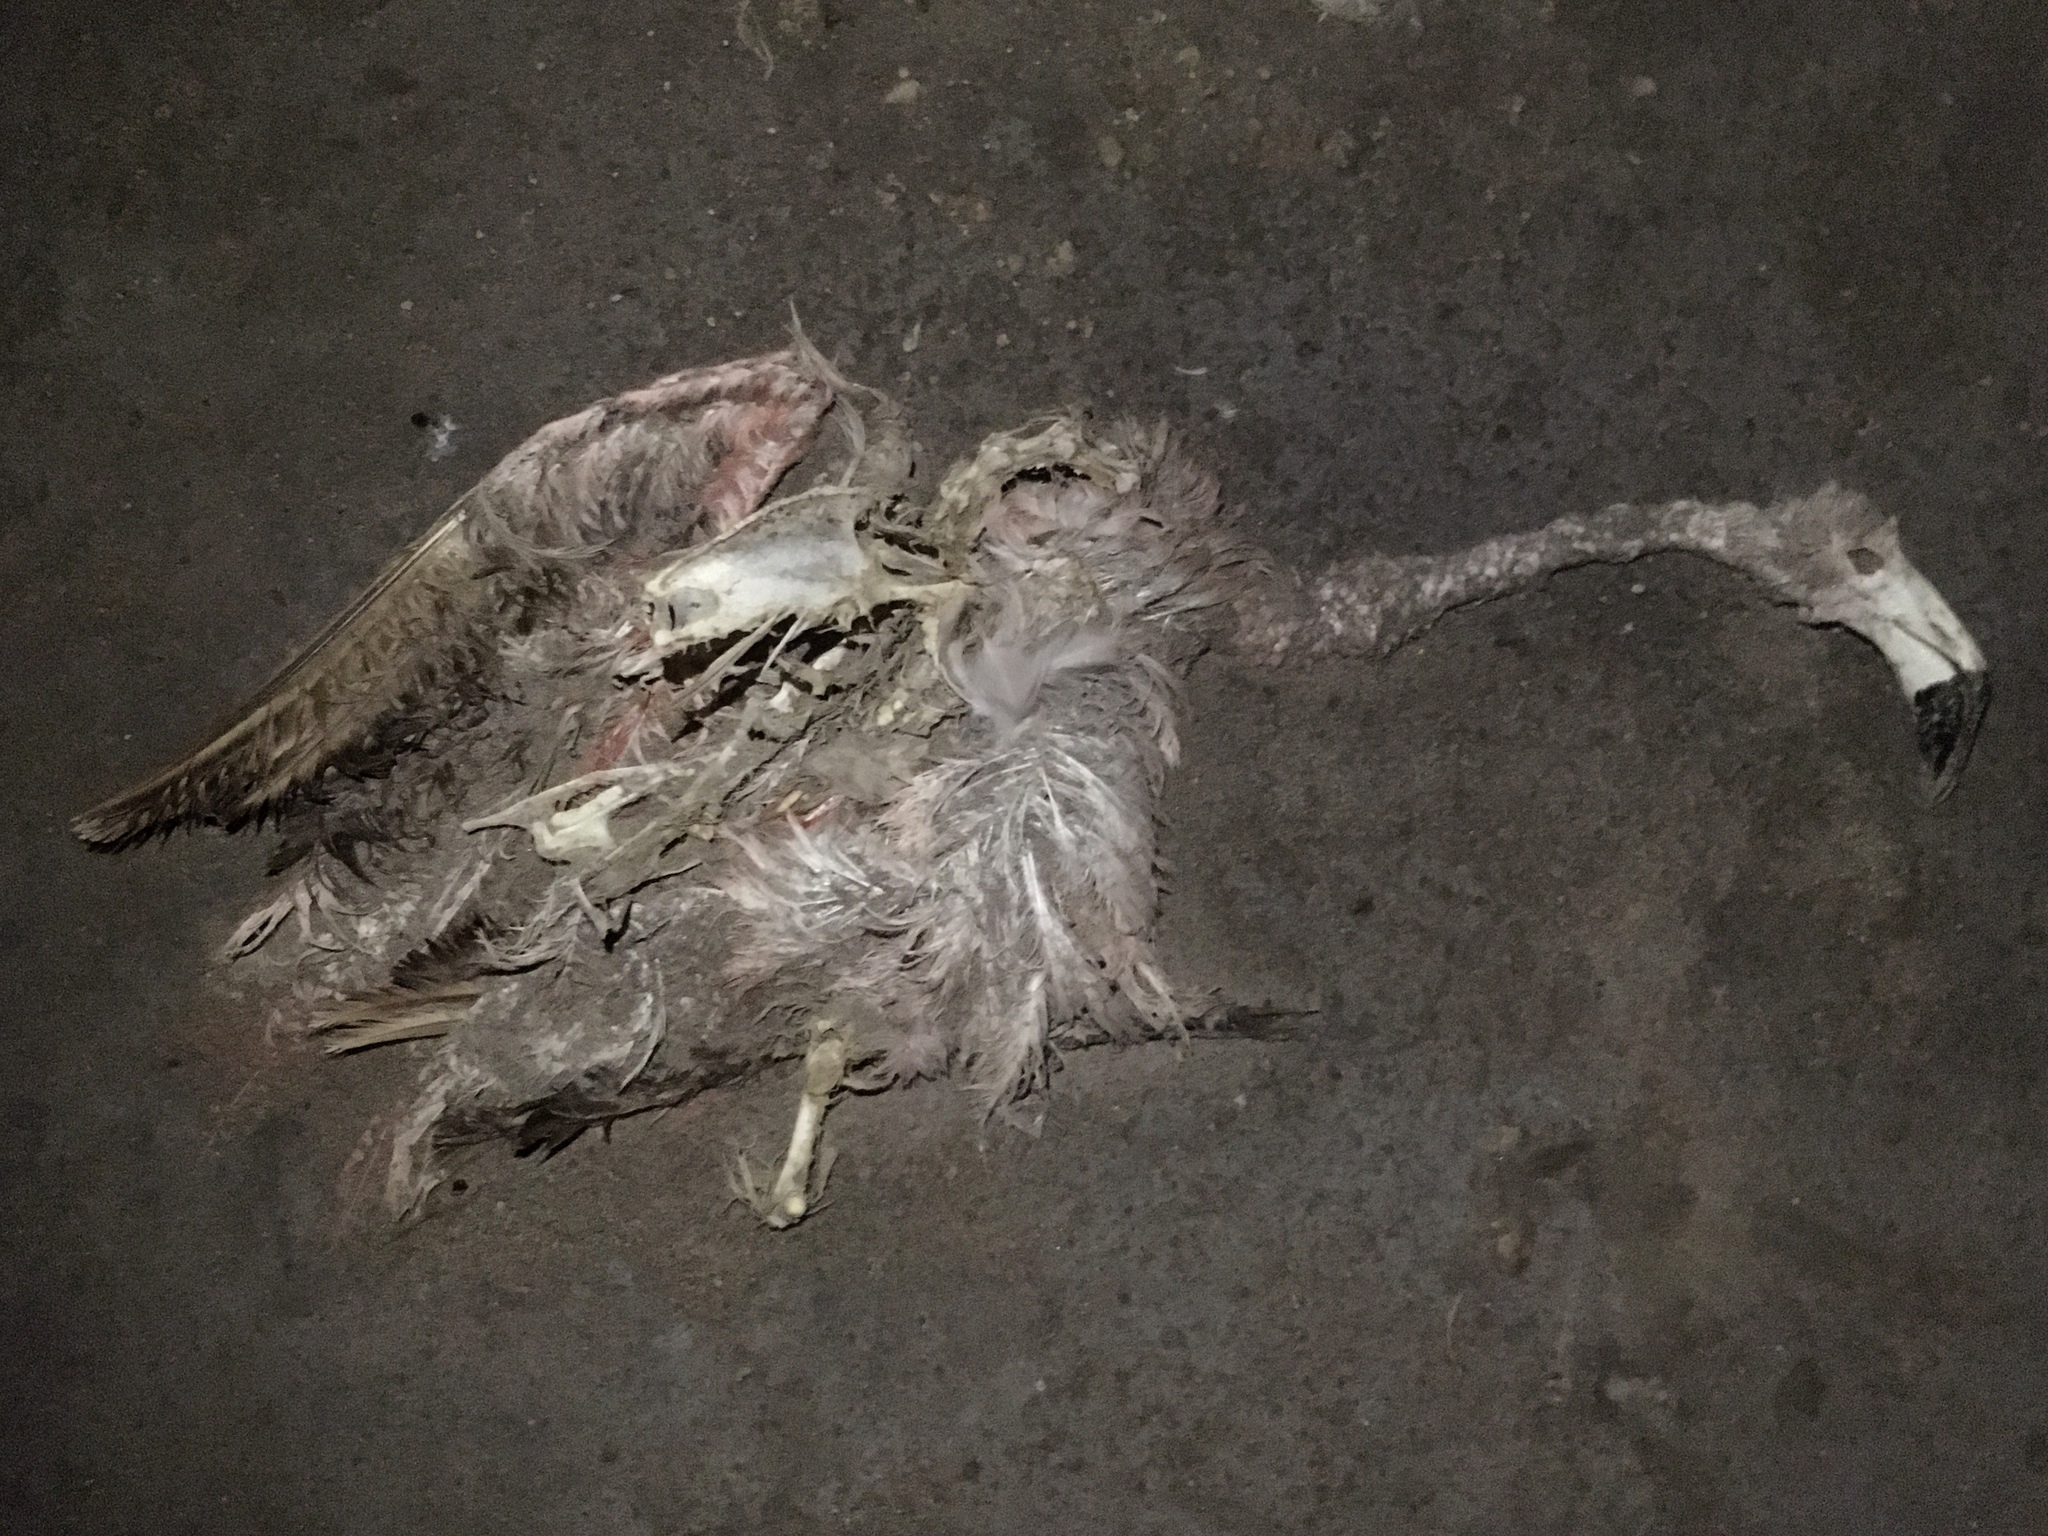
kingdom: Animalia
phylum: Chordata
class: Aves
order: Phoenicopteriformes
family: Phoenicopteridae
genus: Phoenicopterus
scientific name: Phoenicopterus chilensis
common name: Chilean flamingo
